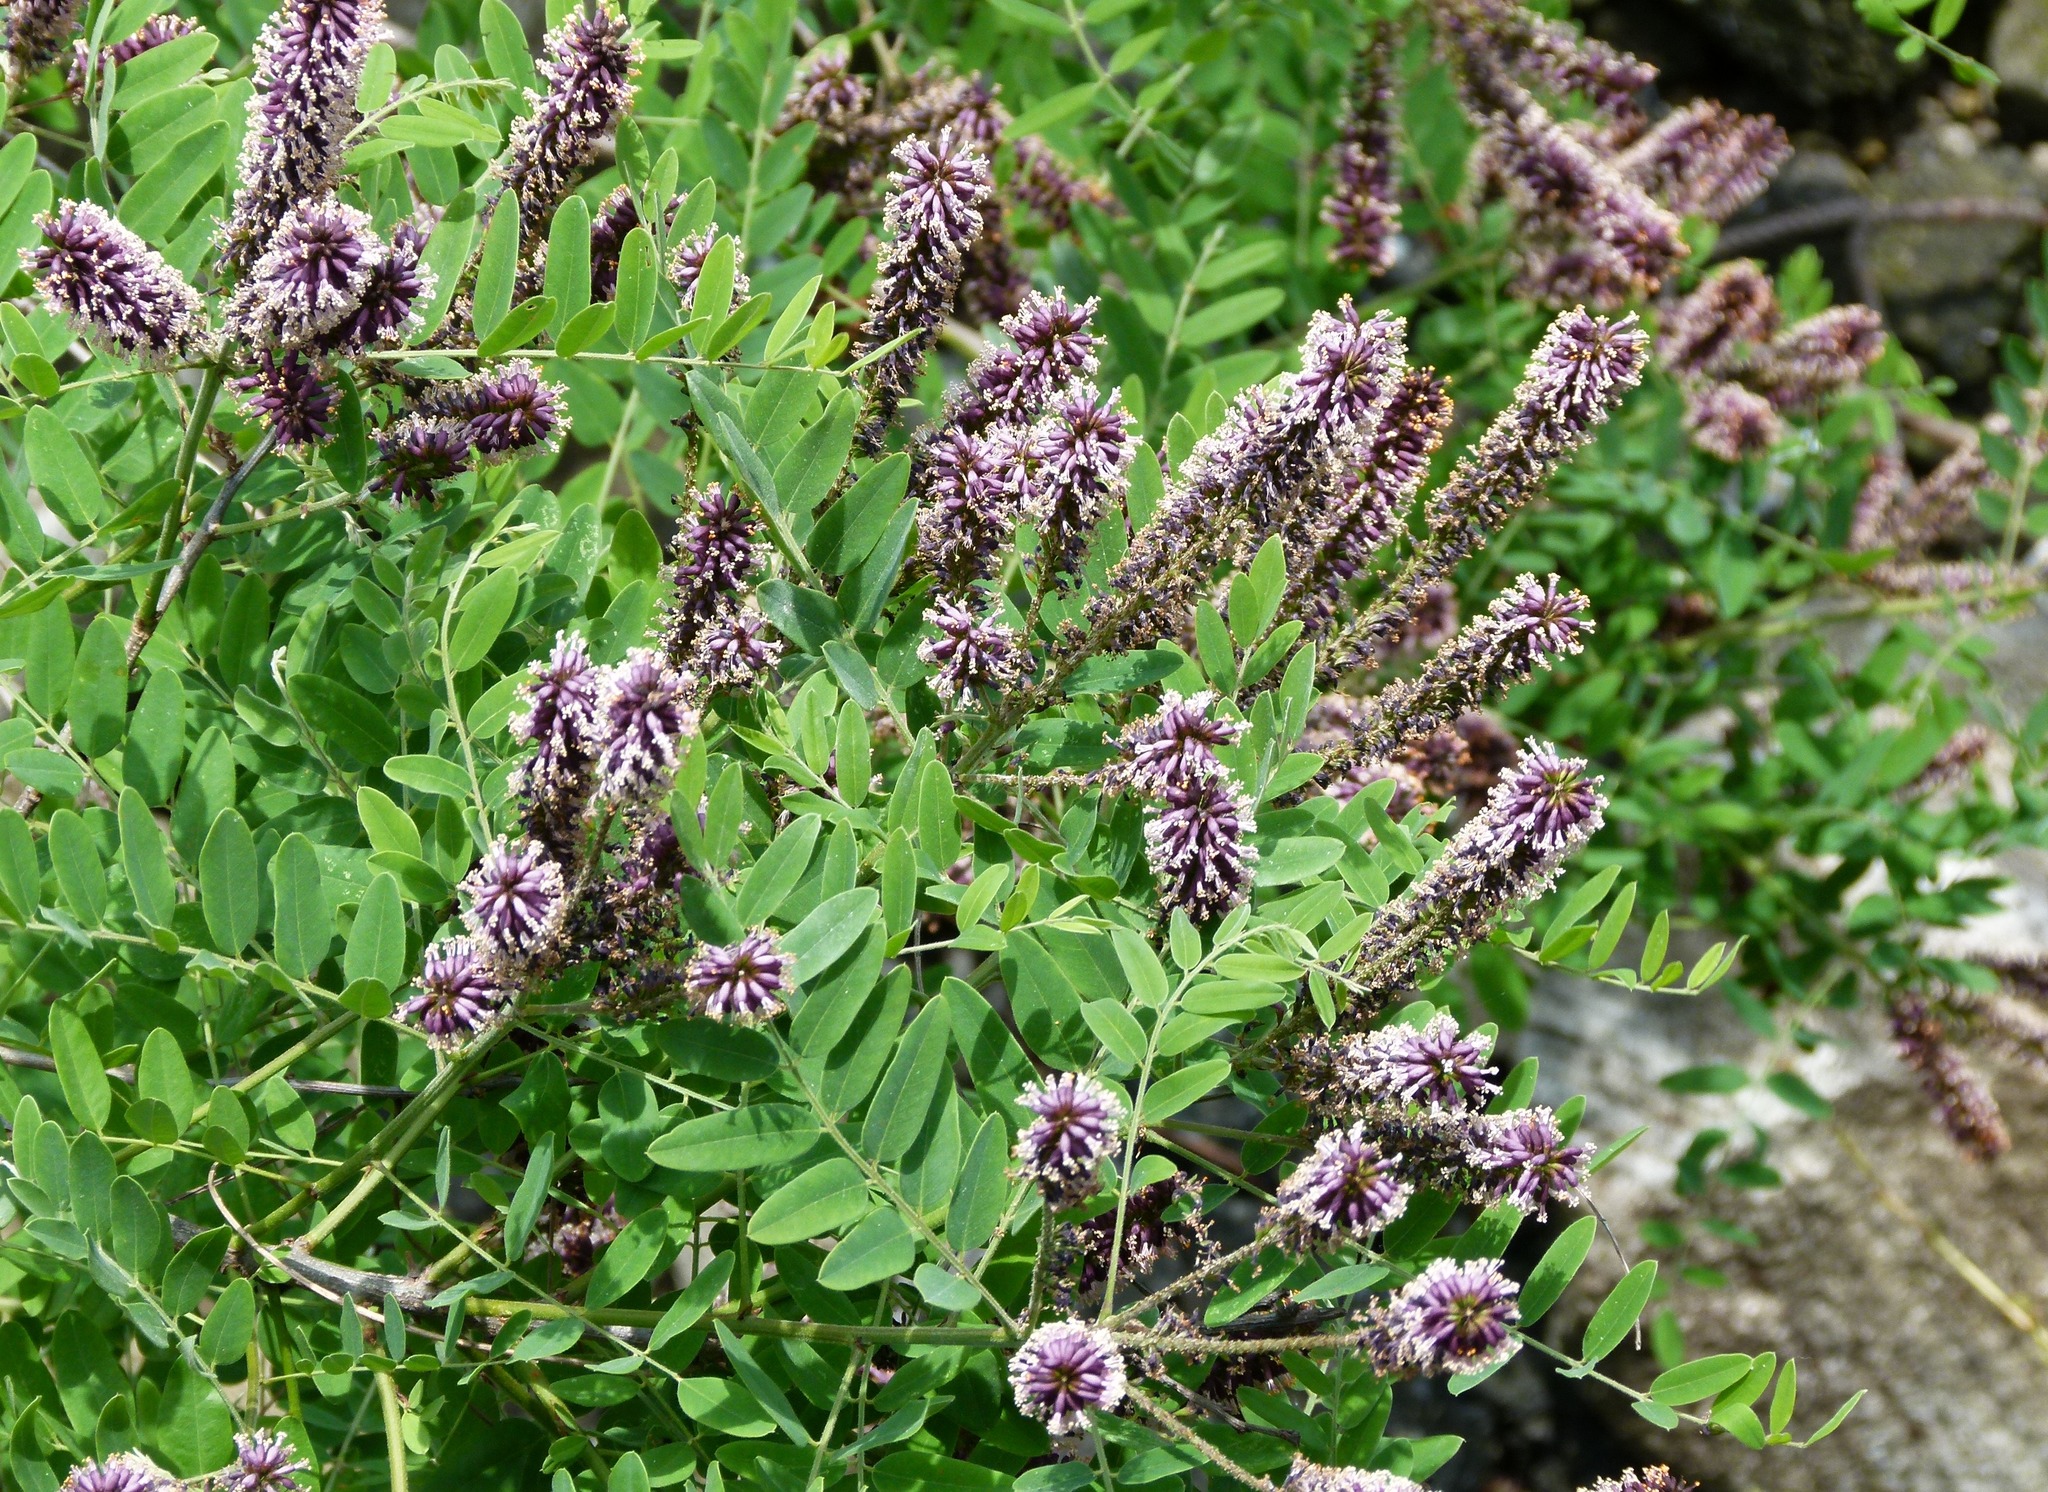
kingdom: Plantae
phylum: Tracheophyta
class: Magnoliopsida
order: Fabales
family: Fabaceae
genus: Amorpha
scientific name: Amorpha fruticosa
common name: False indigo
